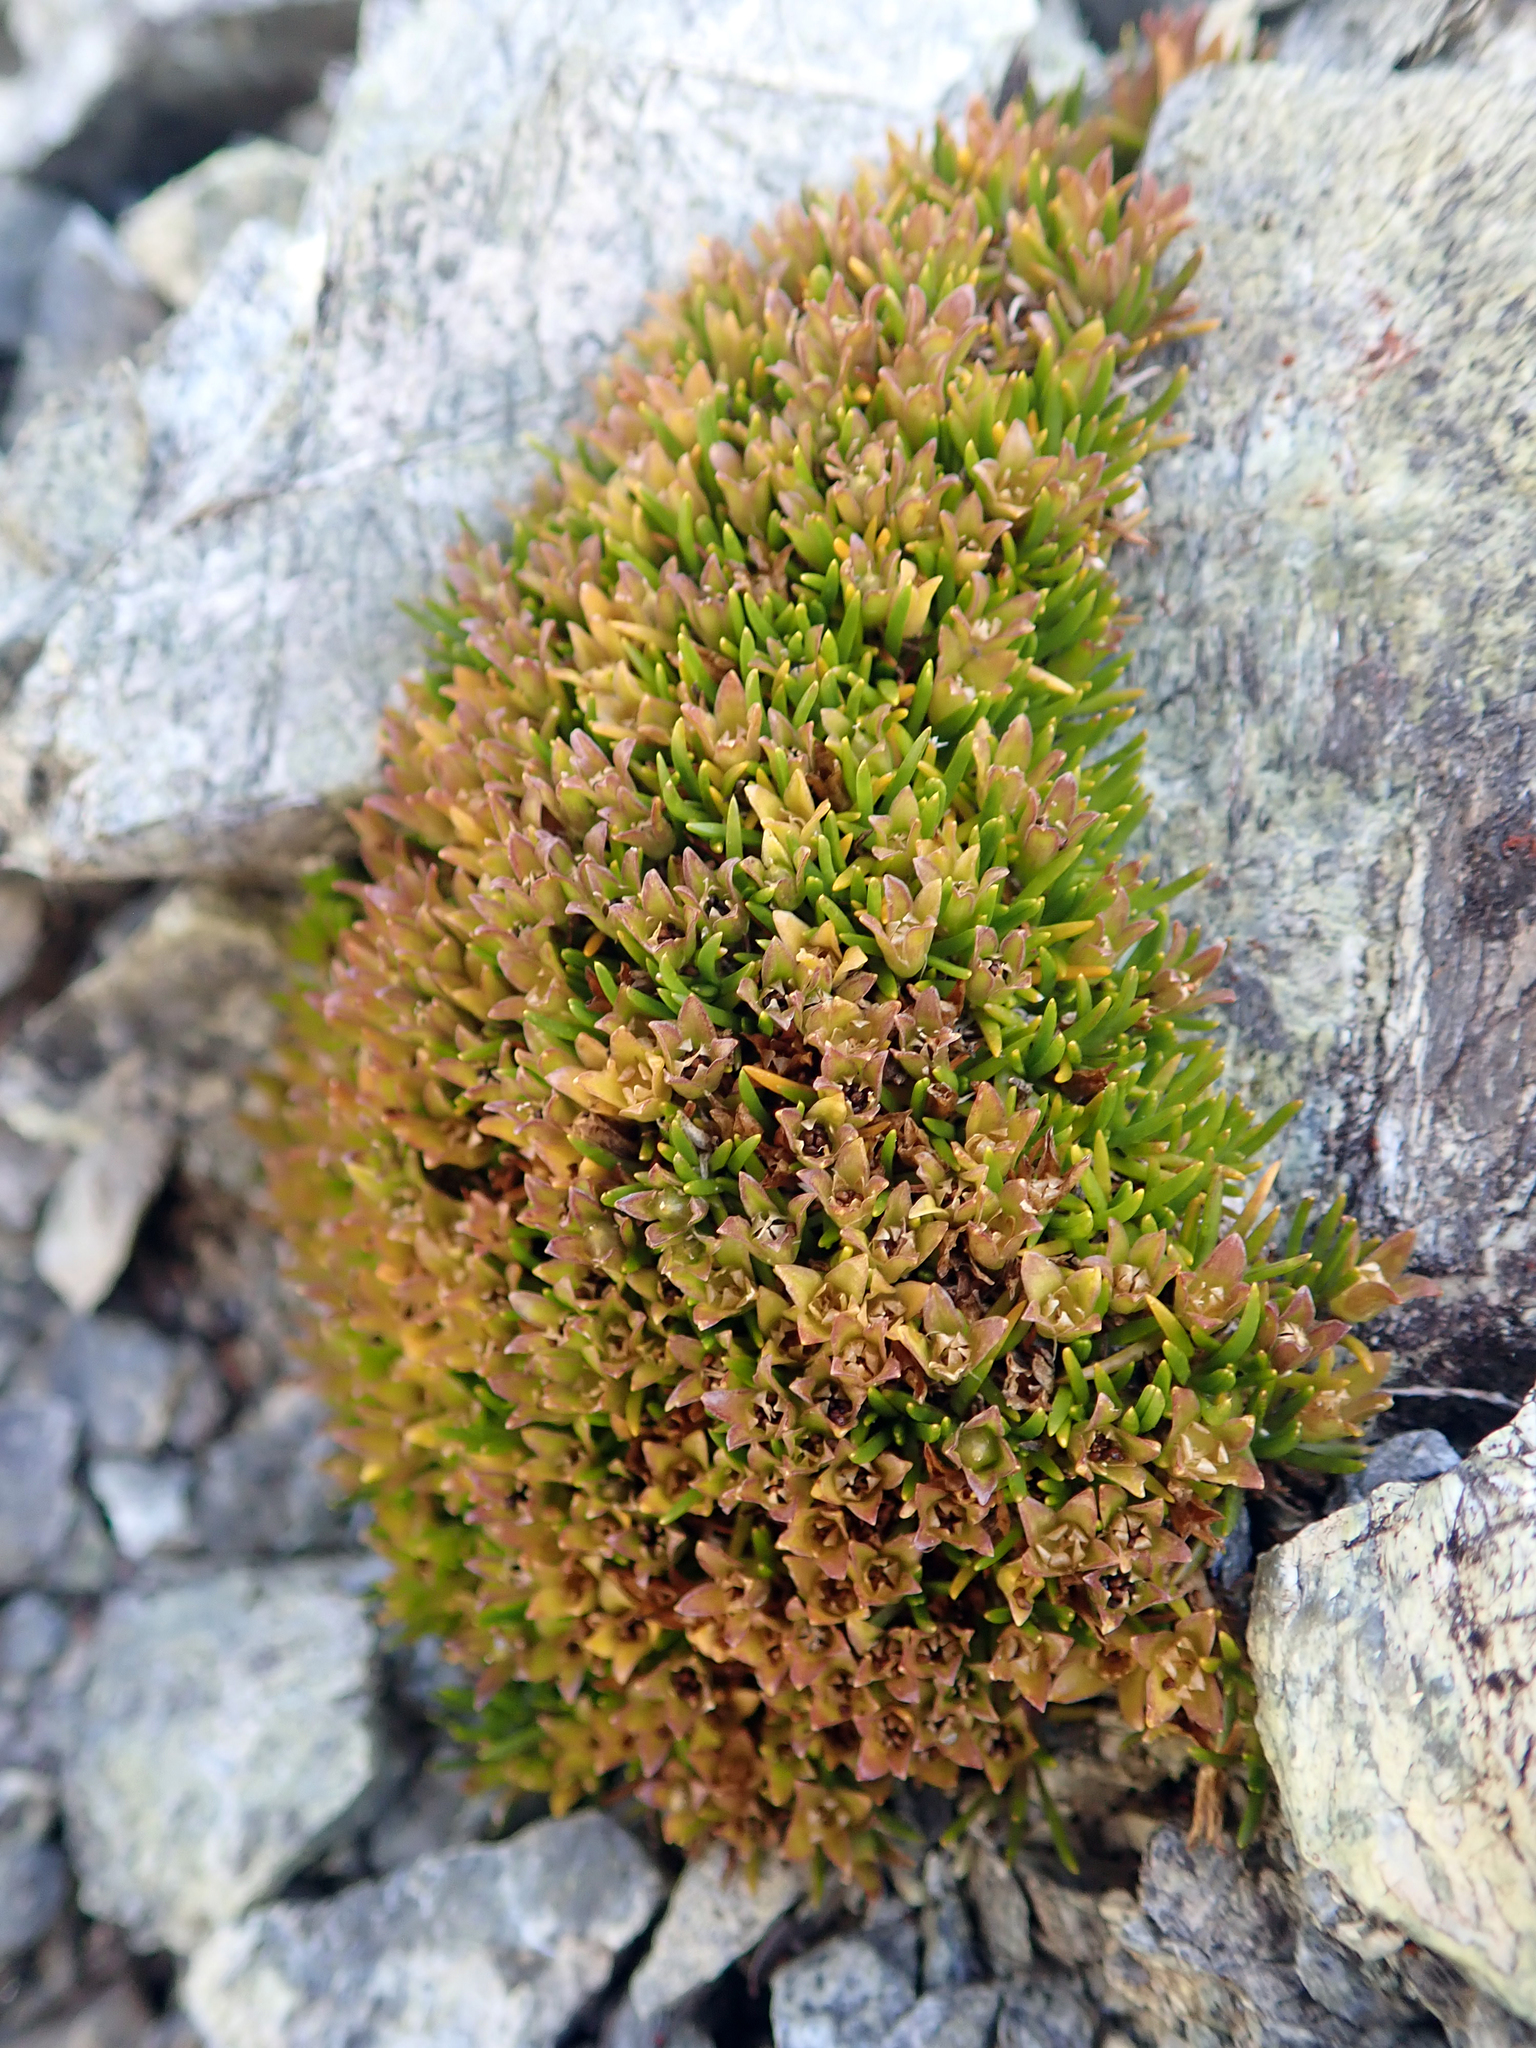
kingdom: Plantae
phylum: Tracheophyta
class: Magnoliopsida
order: Caryophyllales
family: Caryophyllaceae
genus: Colobanthus
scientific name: Colobanthus wallii
